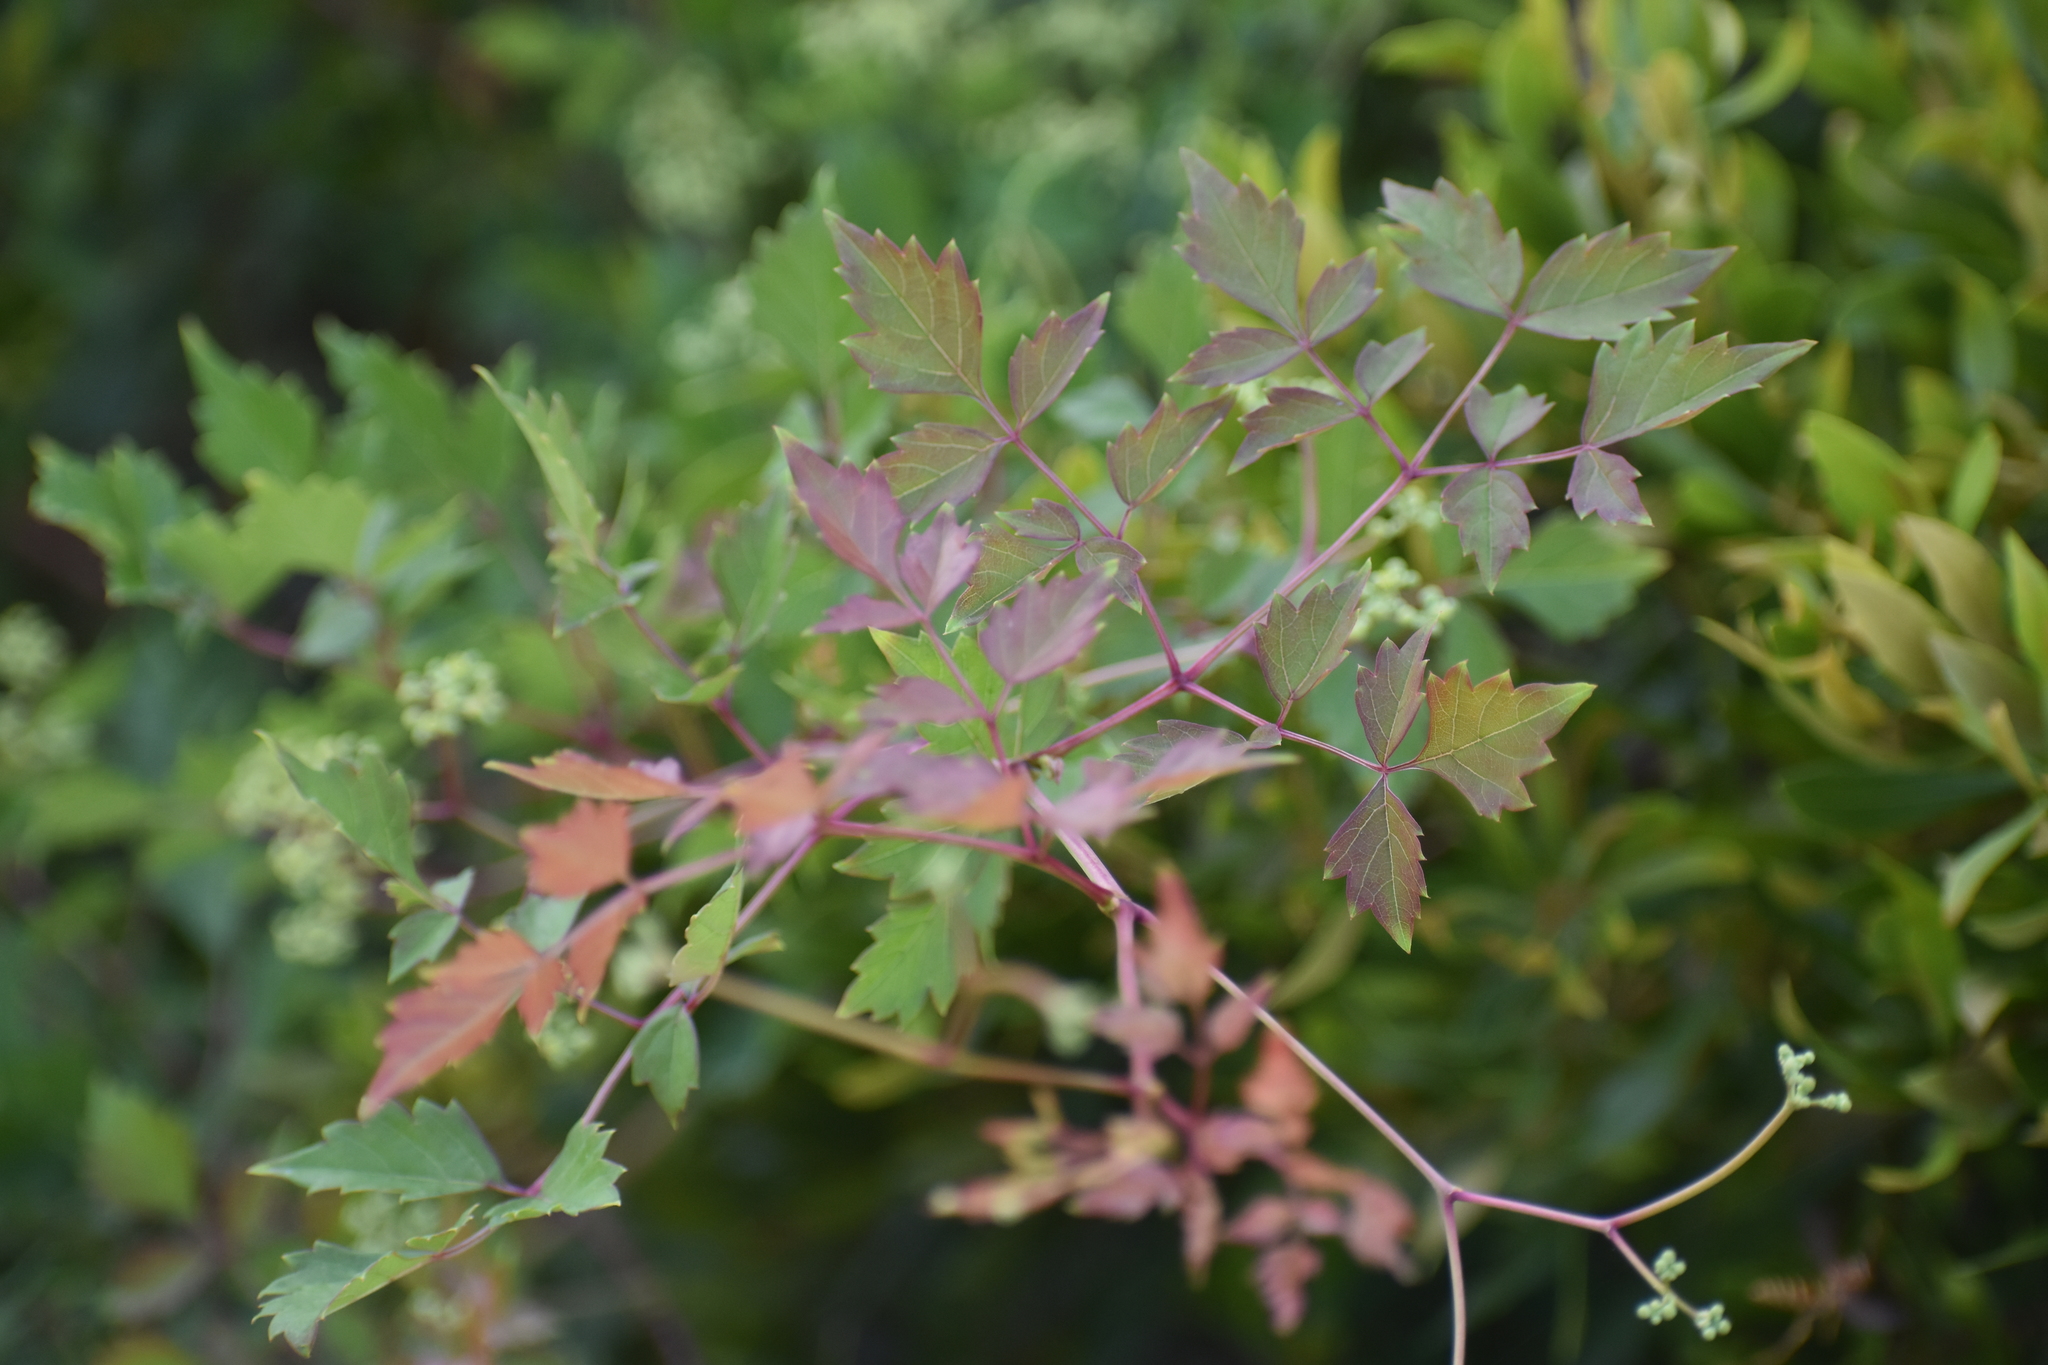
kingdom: Plantae
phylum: Tracheophyta
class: Magnoliopsida
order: Vitales
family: Vitaceae
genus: Nekemias
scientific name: Nekemias arborea
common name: Peppervine
